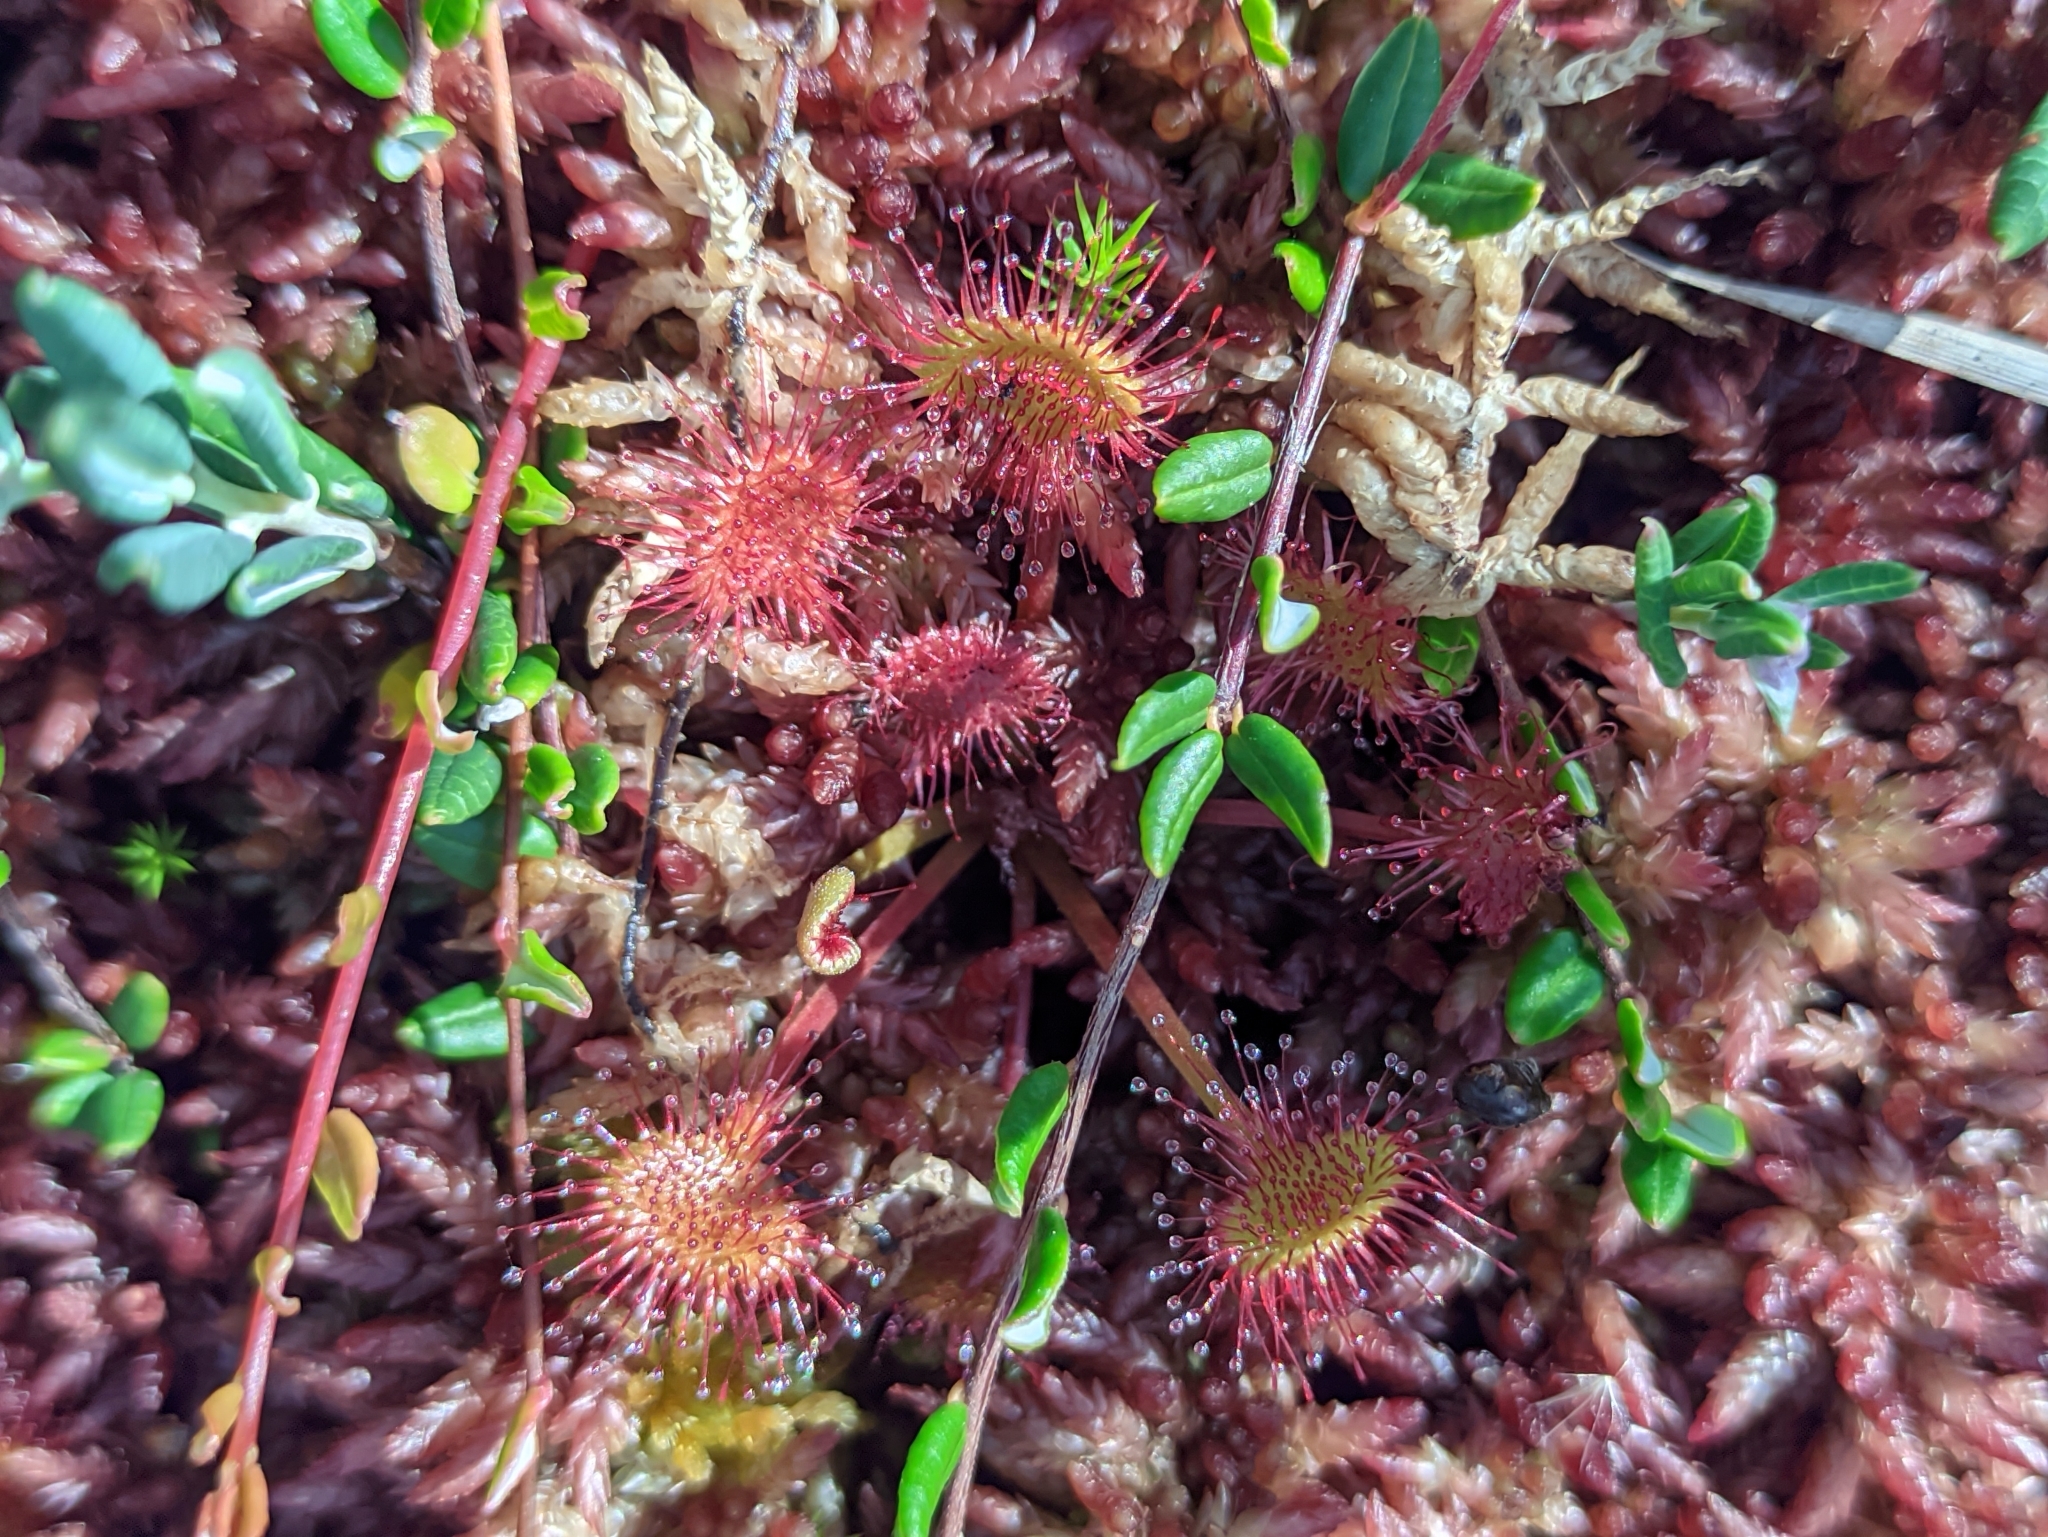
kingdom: Plantae
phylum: Tracheophyta
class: Magnoliopsida
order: Caryophyllales
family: Droseraceae
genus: Drosera
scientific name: Drosera rotundifolia
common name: Round-leaved sundew
